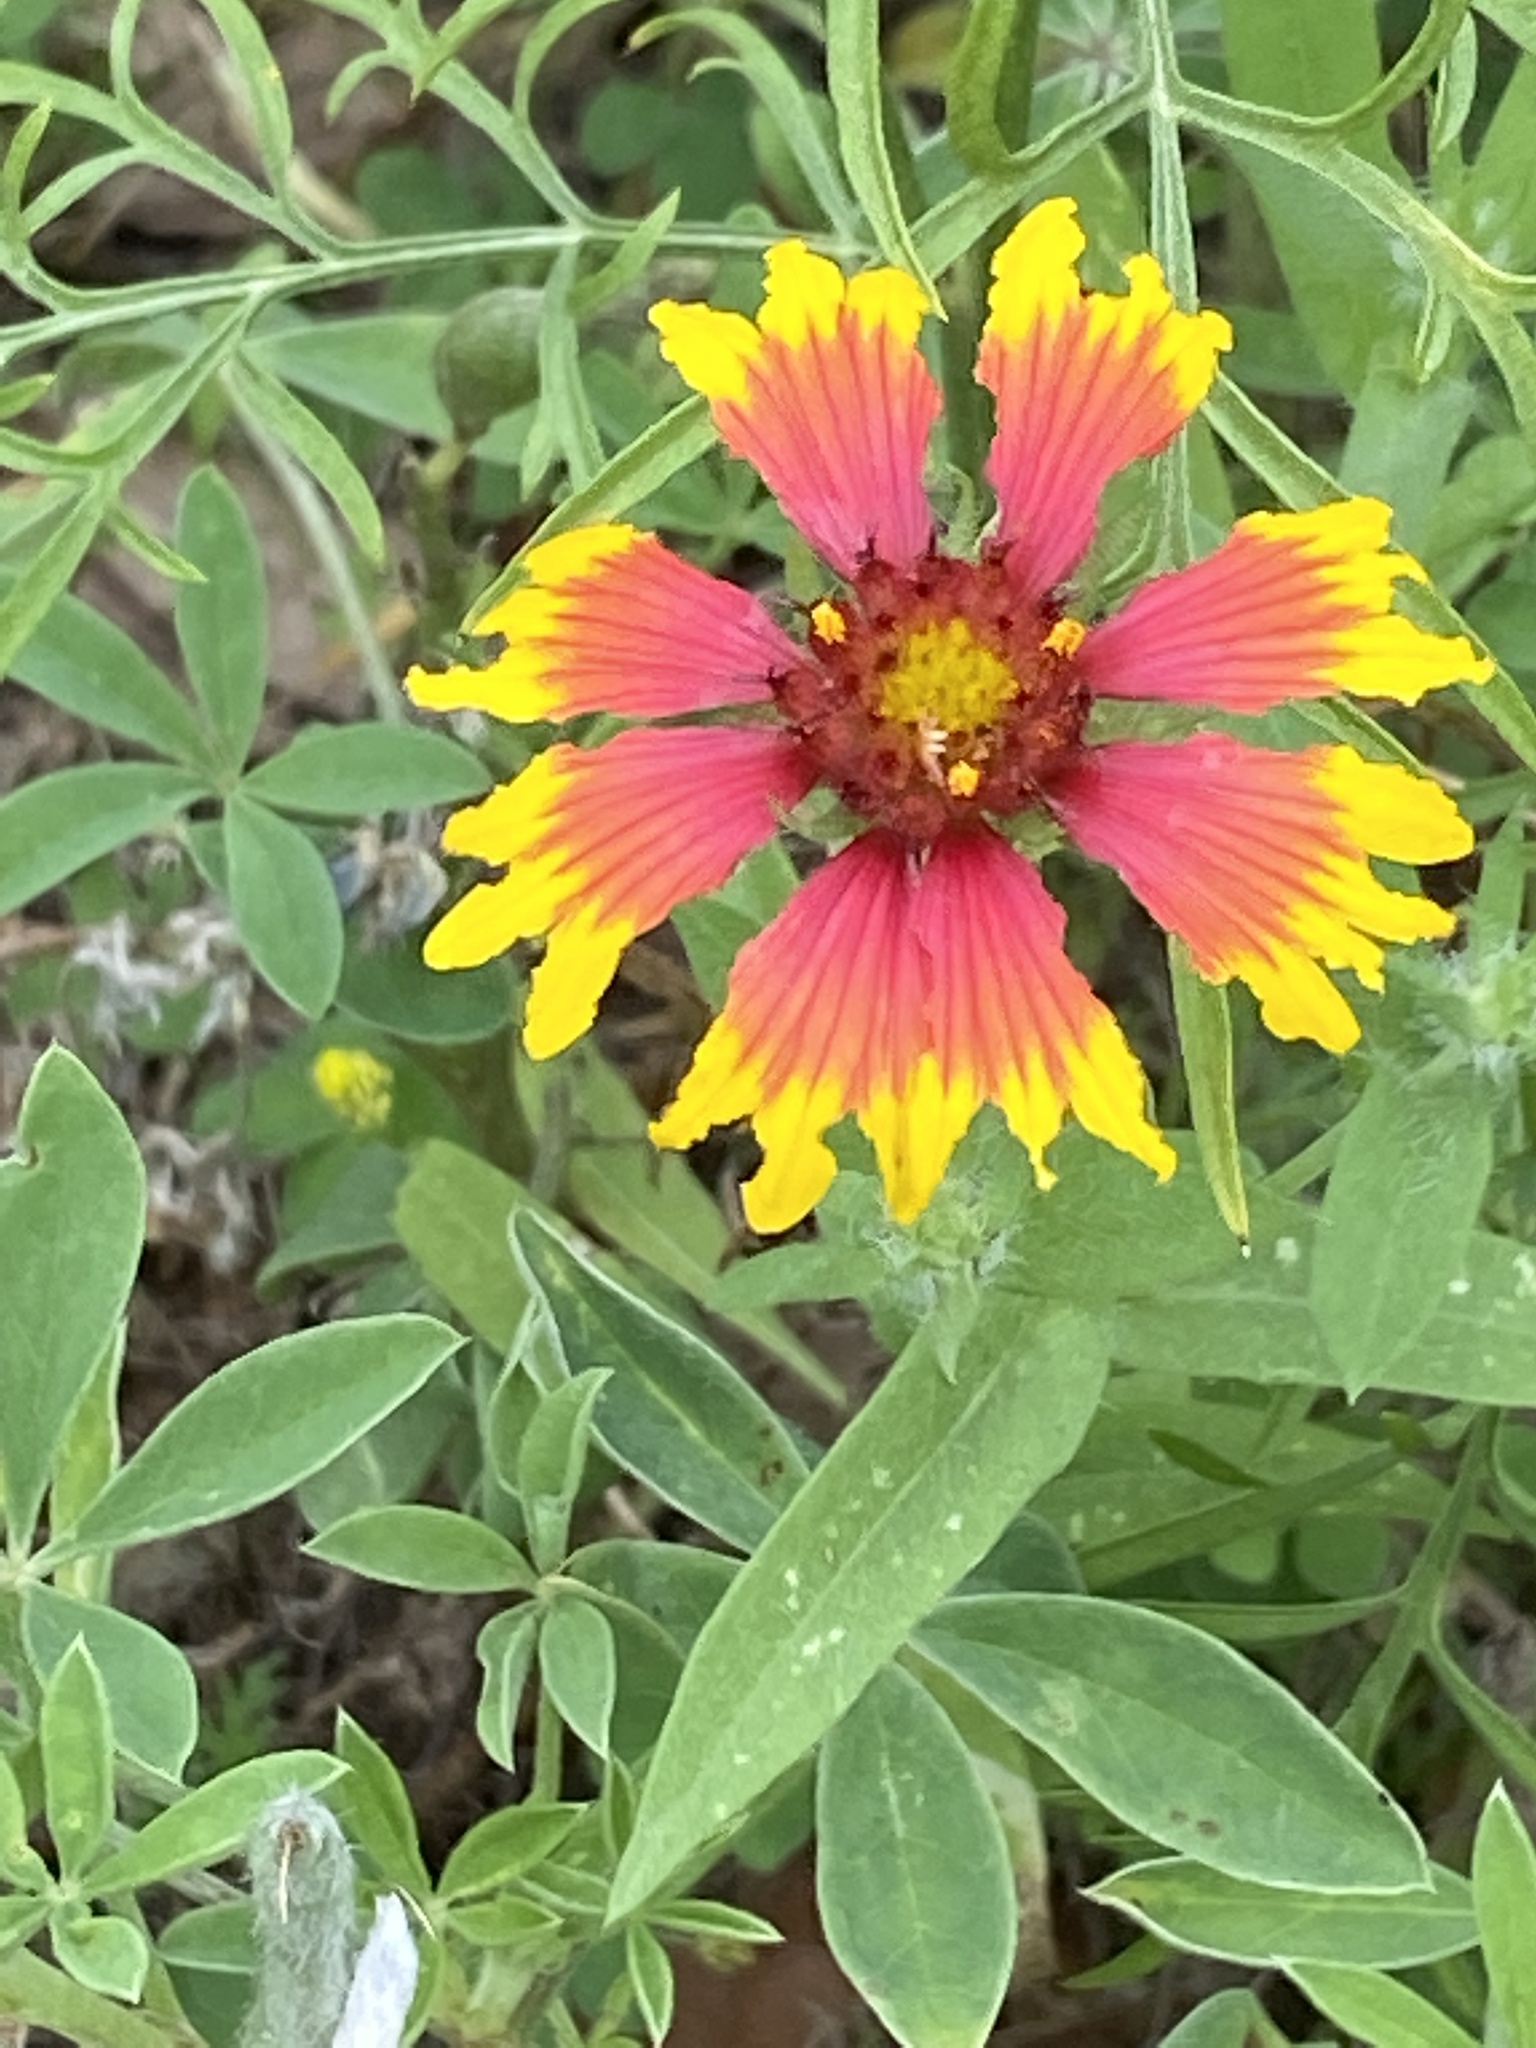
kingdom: Plantae
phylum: Tracheophyta
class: Magnoliopsida
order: Asterales
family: Asteraceae
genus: Gaillardia
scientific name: Gaillardia pulchella
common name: Firewheel
